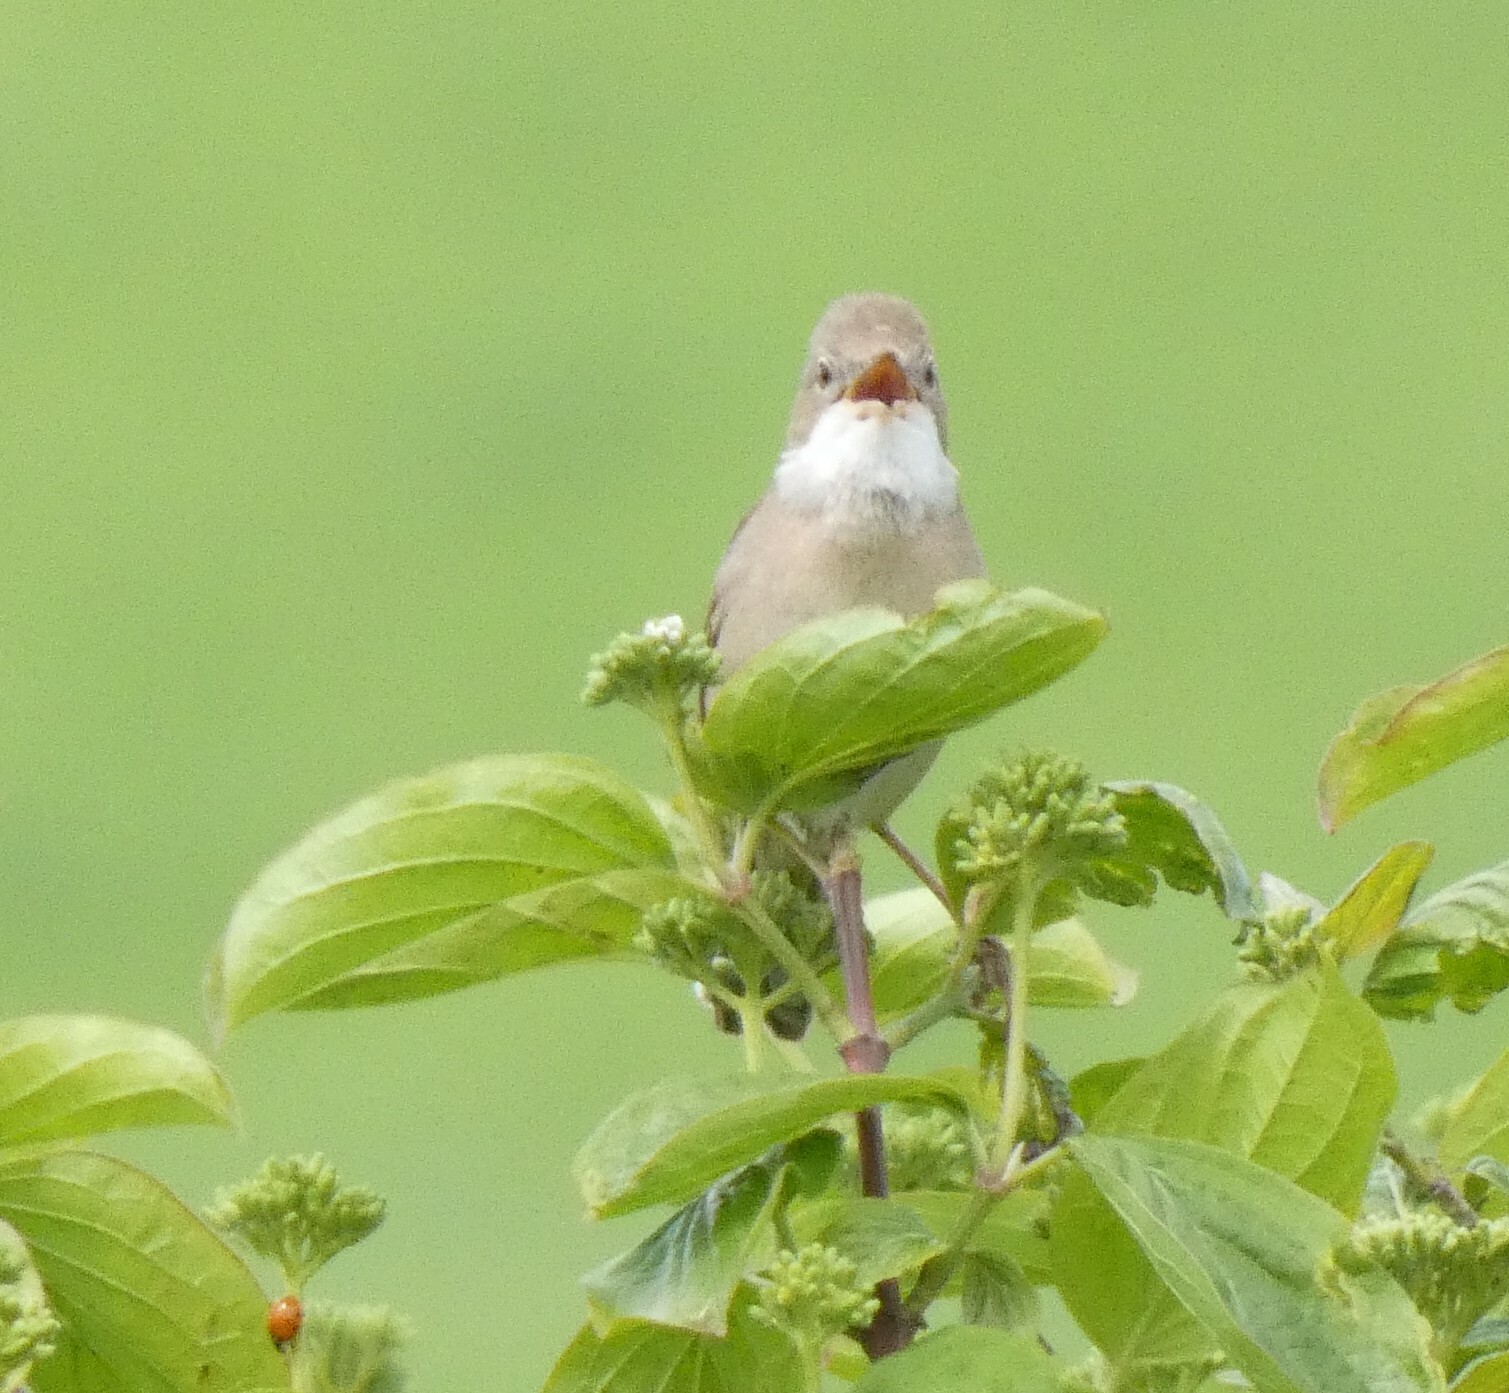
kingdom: Animalia
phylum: Chordata
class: Aves
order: Passeriformes
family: Sylviidae
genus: Sylvia
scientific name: Sylvia communis
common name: Common whitethroat
